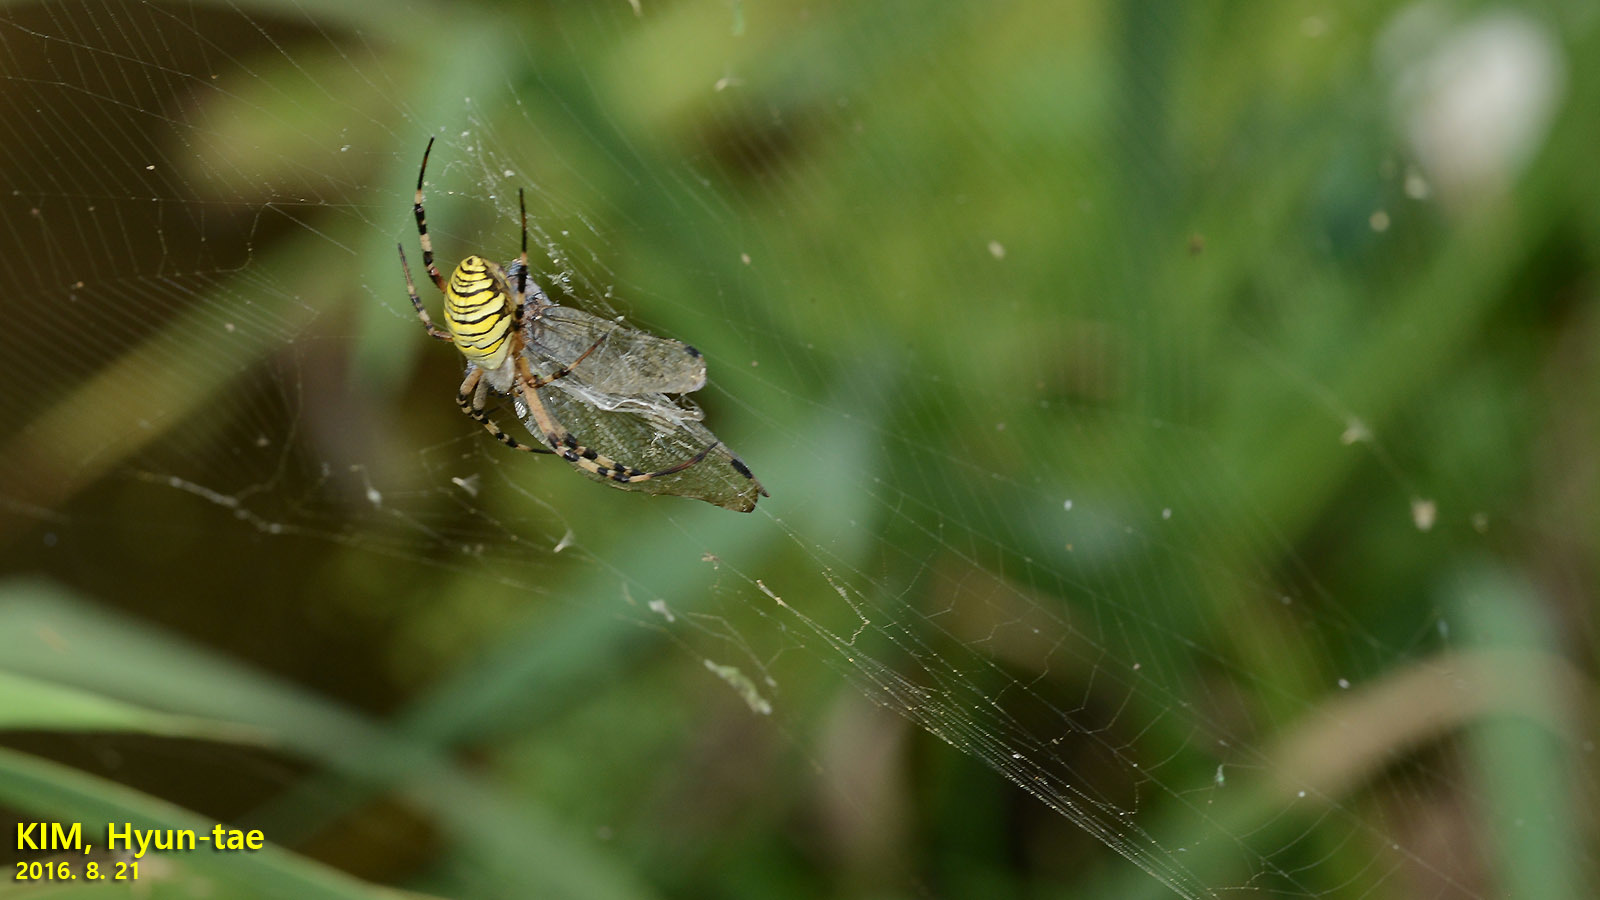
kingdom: Animalia
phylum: Arthropoda
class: Arachnida
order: Araneae
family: Araneidae
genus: Argiope
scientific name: Argiope bruennichi
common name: Wasp spider
